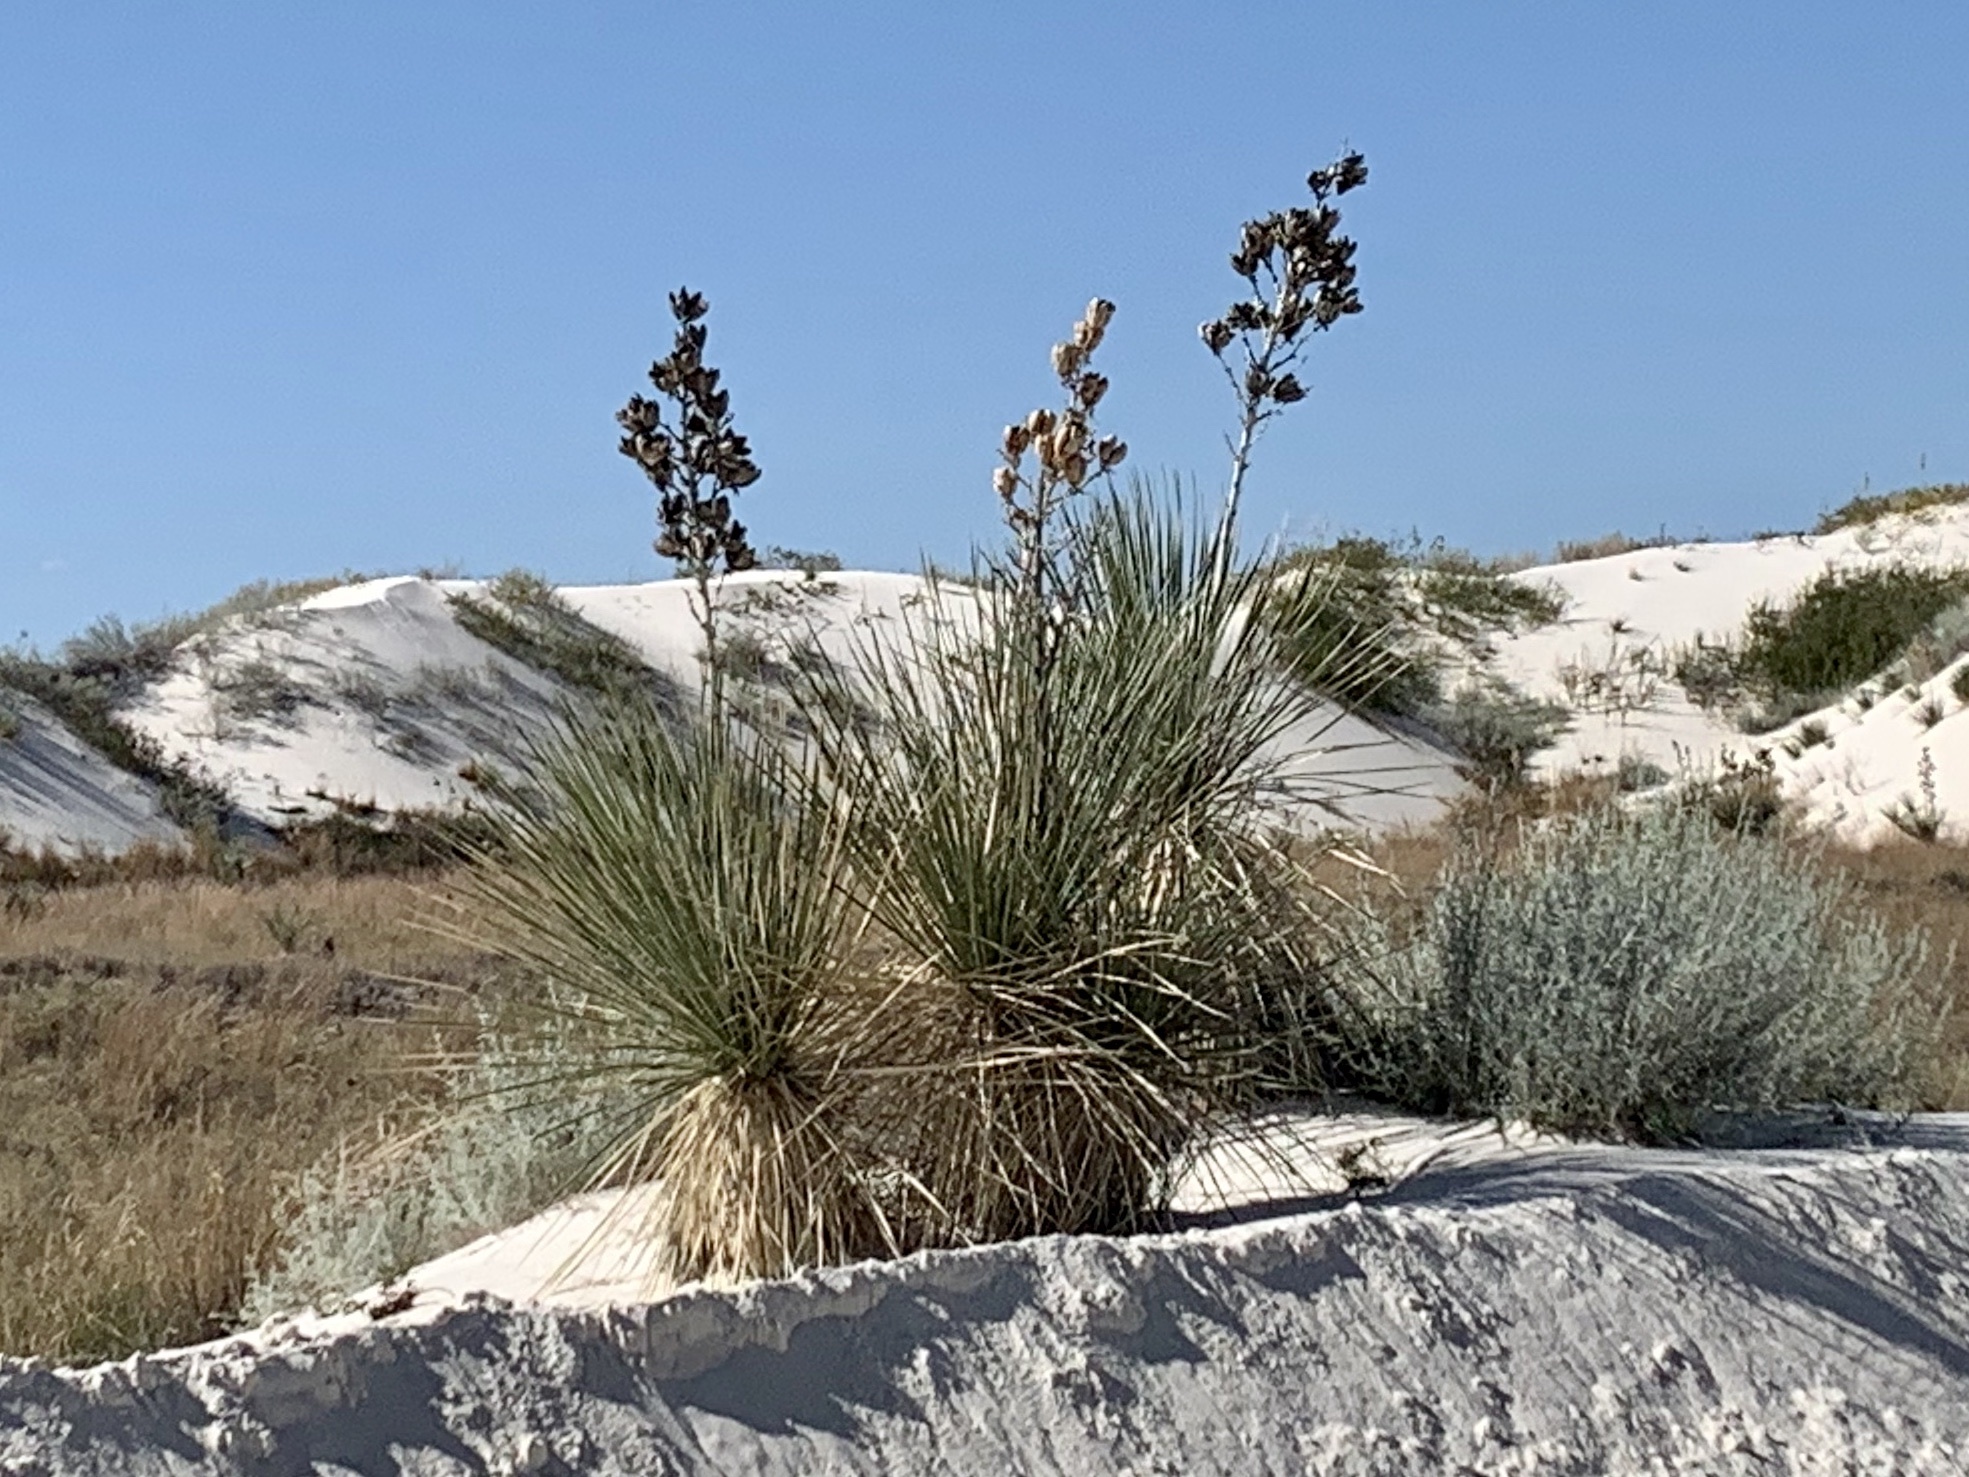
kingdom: Plantae
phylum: Tracheophyta
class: Liliopsida
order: Asparagales
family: Asparagaceae
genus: Yucca
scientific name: Yucca elata
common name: Palmella
